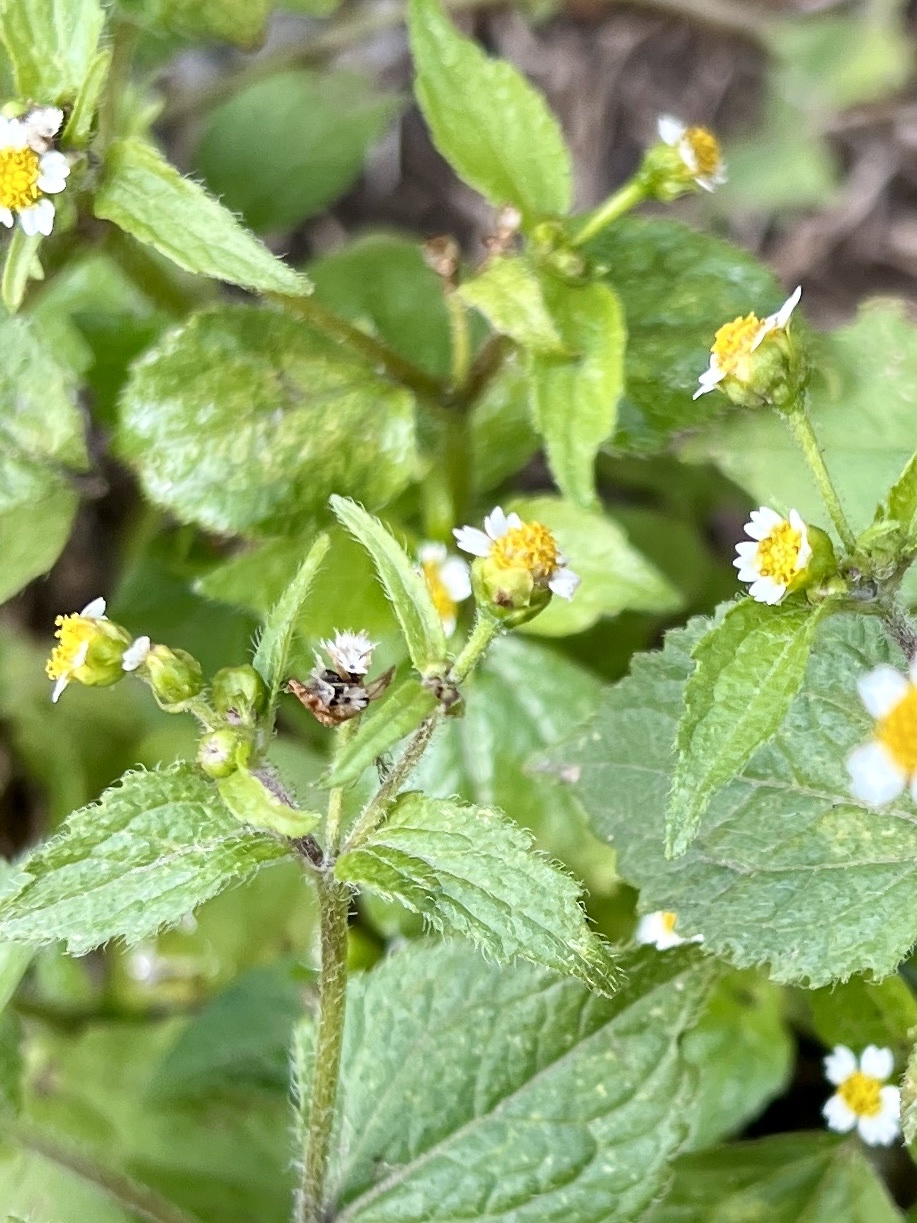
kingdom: Plantae
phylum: Tracheophyta
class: Magnoliopsida
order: Asterales
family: Asteraceae
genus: Galinsoga
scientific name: Galinsoga quadriradiata
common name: Shaggy soldier
